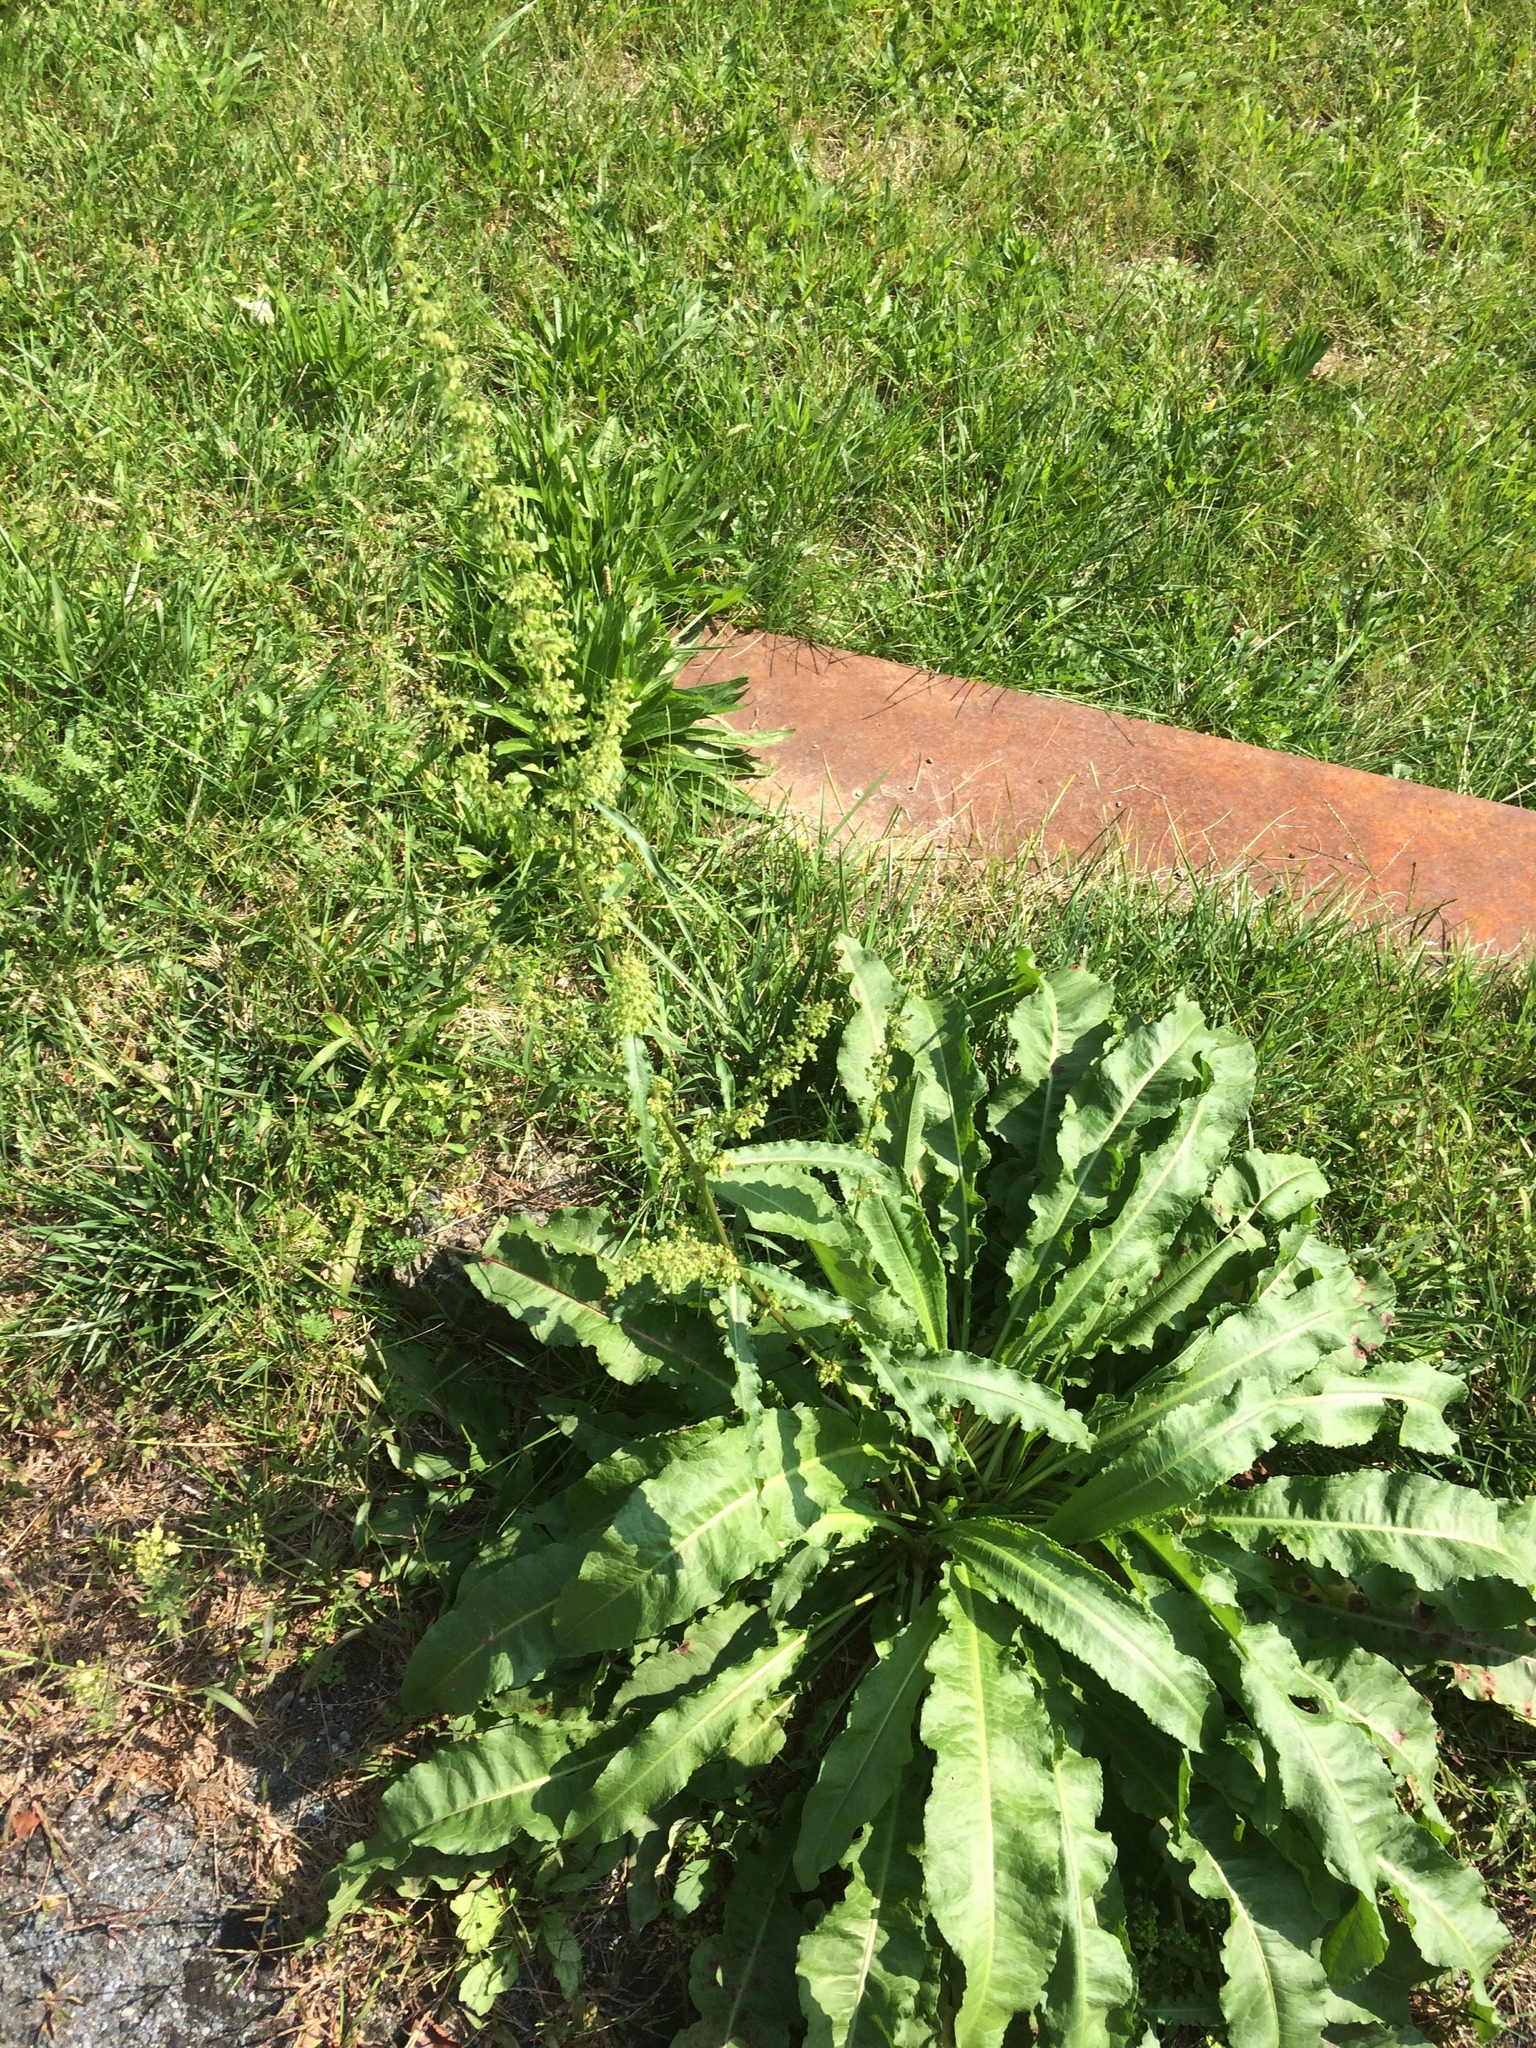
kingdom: Plantae
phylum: Tracheophyta
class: Magnoliopsida
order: Caryophyllales
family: Polygonaceae
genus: Rumex
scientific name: Rumex crispus
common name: Curled dock
